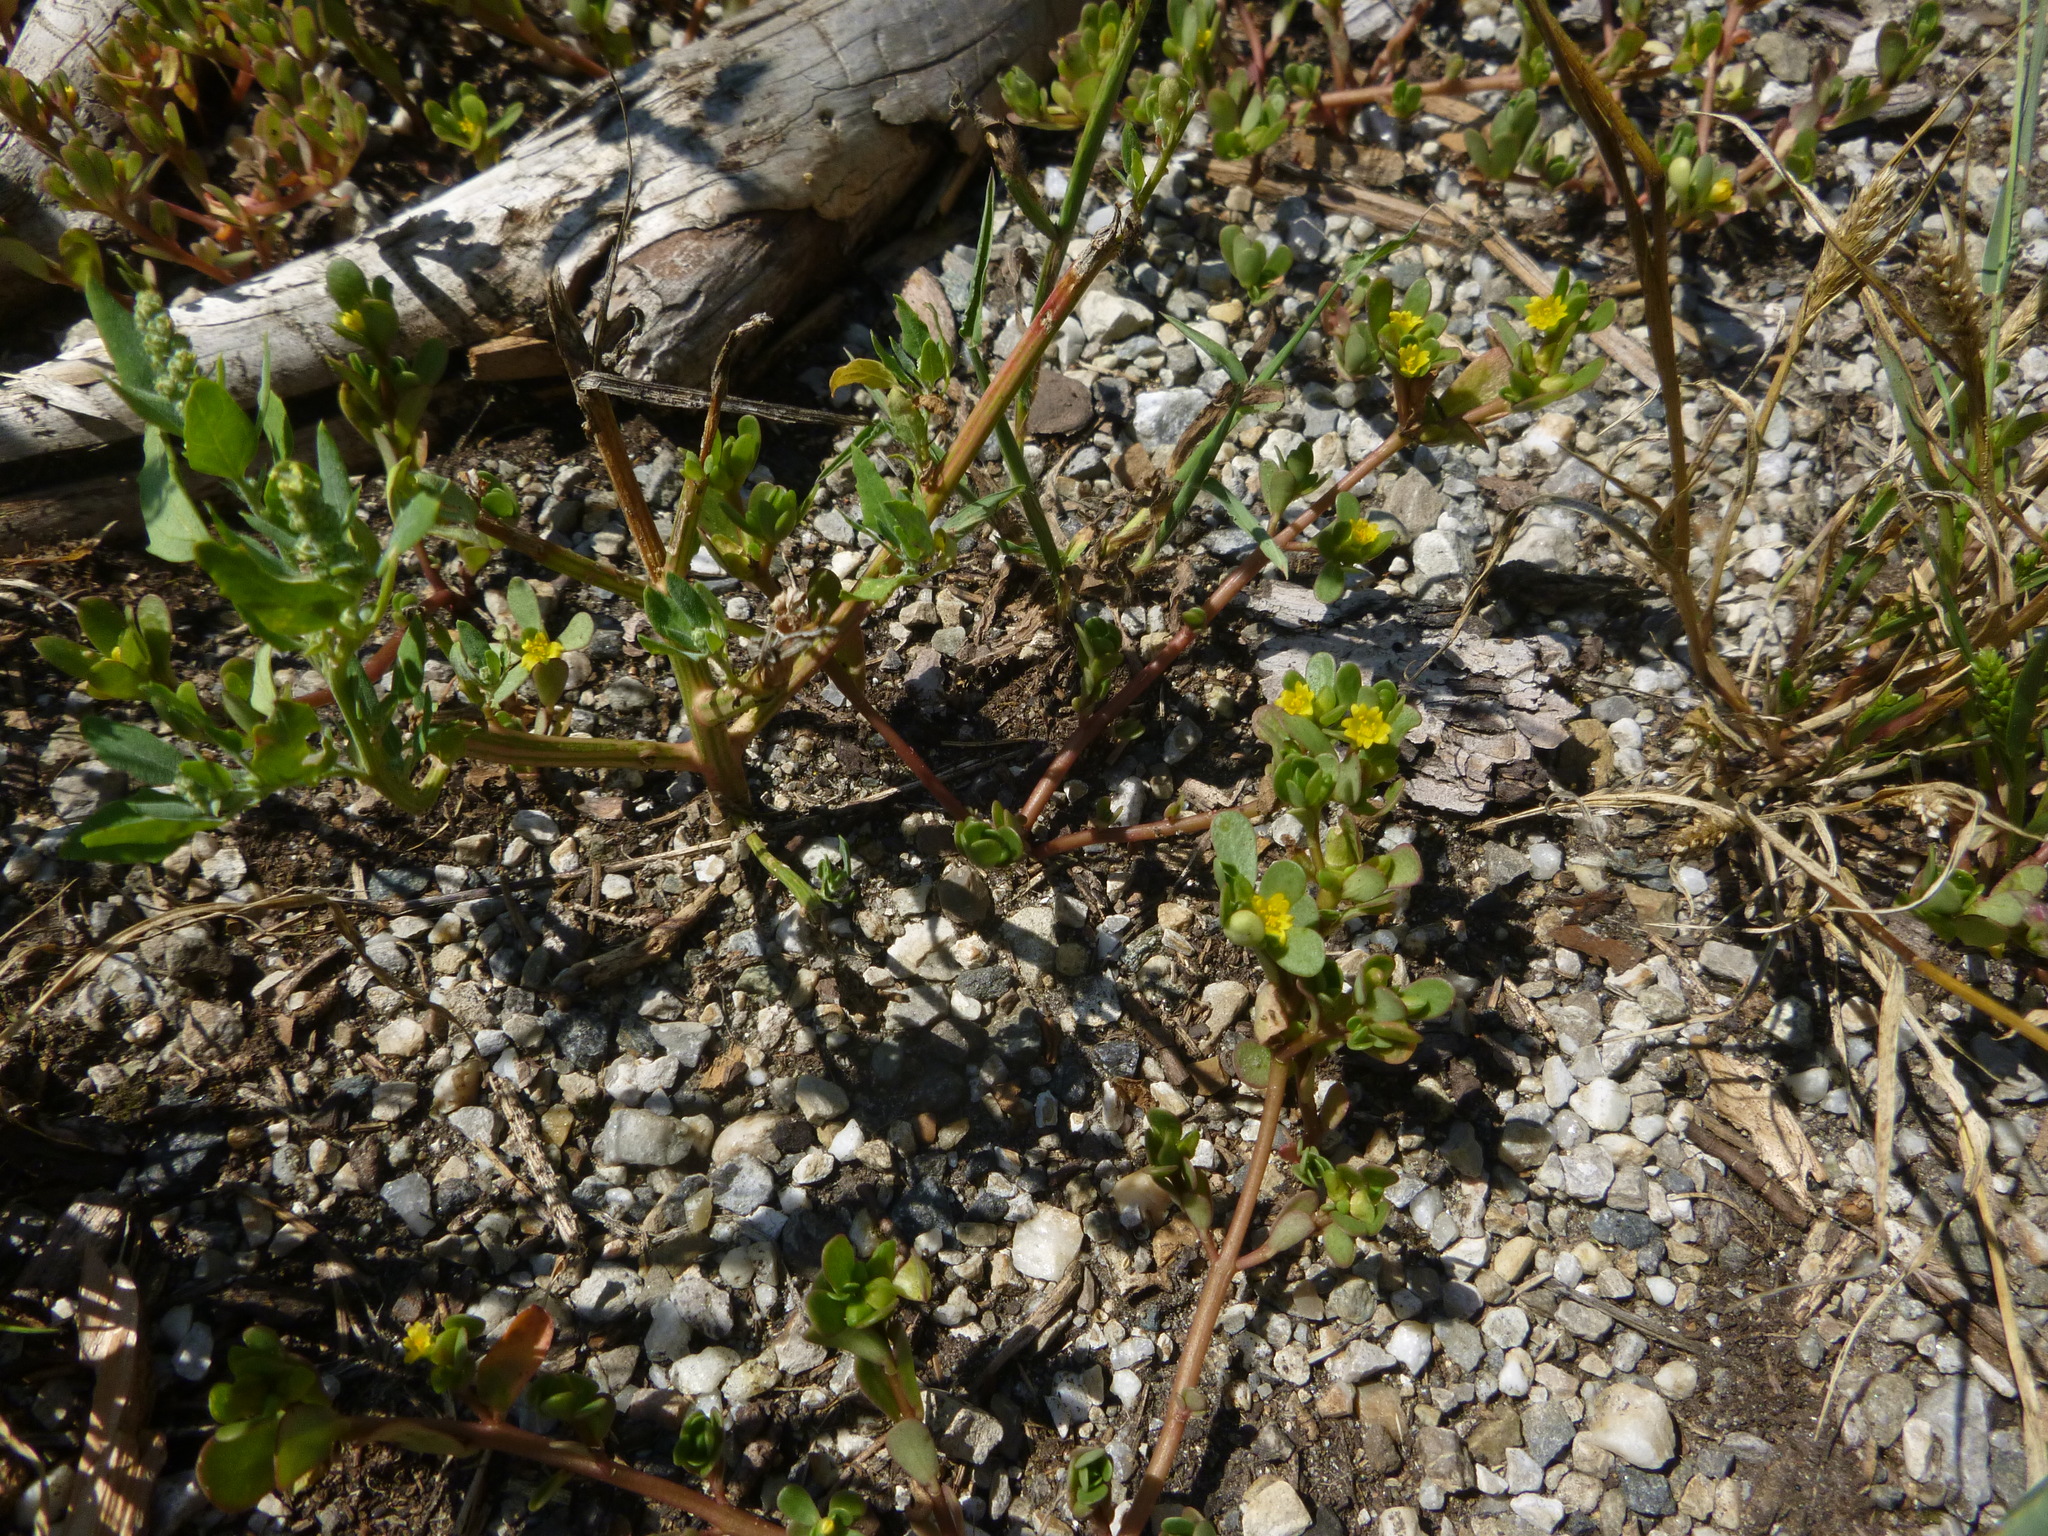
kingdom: Plantae
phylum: Tracheophyta
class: Magnoliopsida
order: Caryophyllales
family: Portulacaceae
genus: Portulaca
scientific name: Portulaca oleracea
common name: Common purslane
